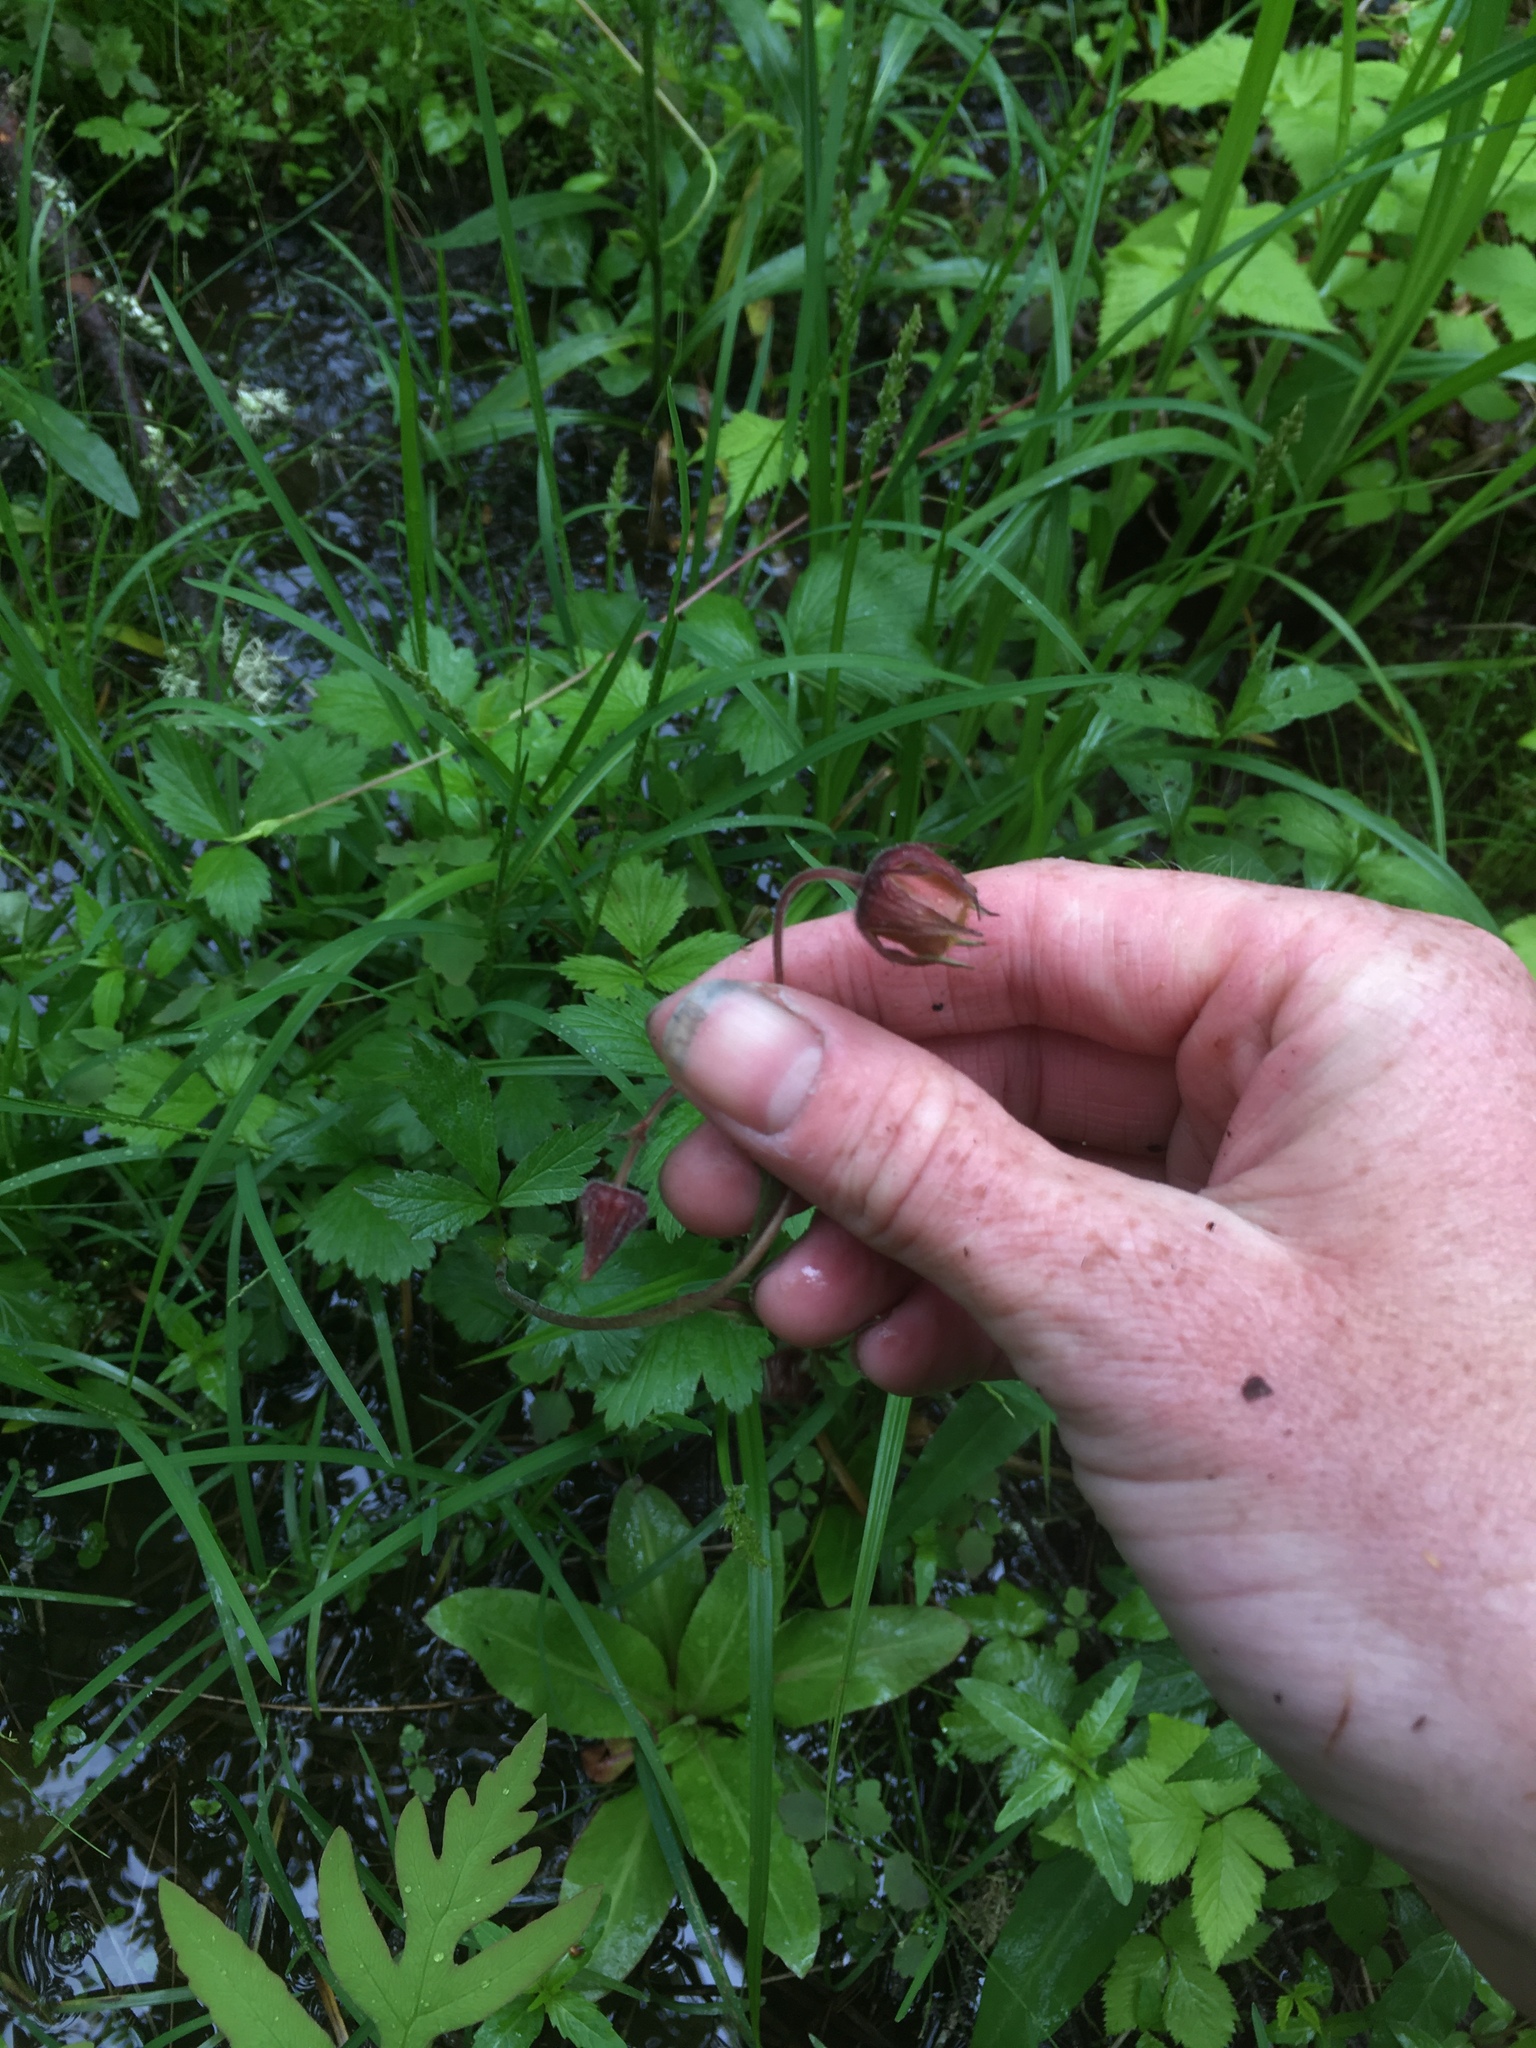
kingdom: Plantae
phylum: Tracheophyta
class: Magnoliopsida
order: Rosales
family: Rosaceae
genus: Geum
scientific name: Geum rivale
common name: Water avens
